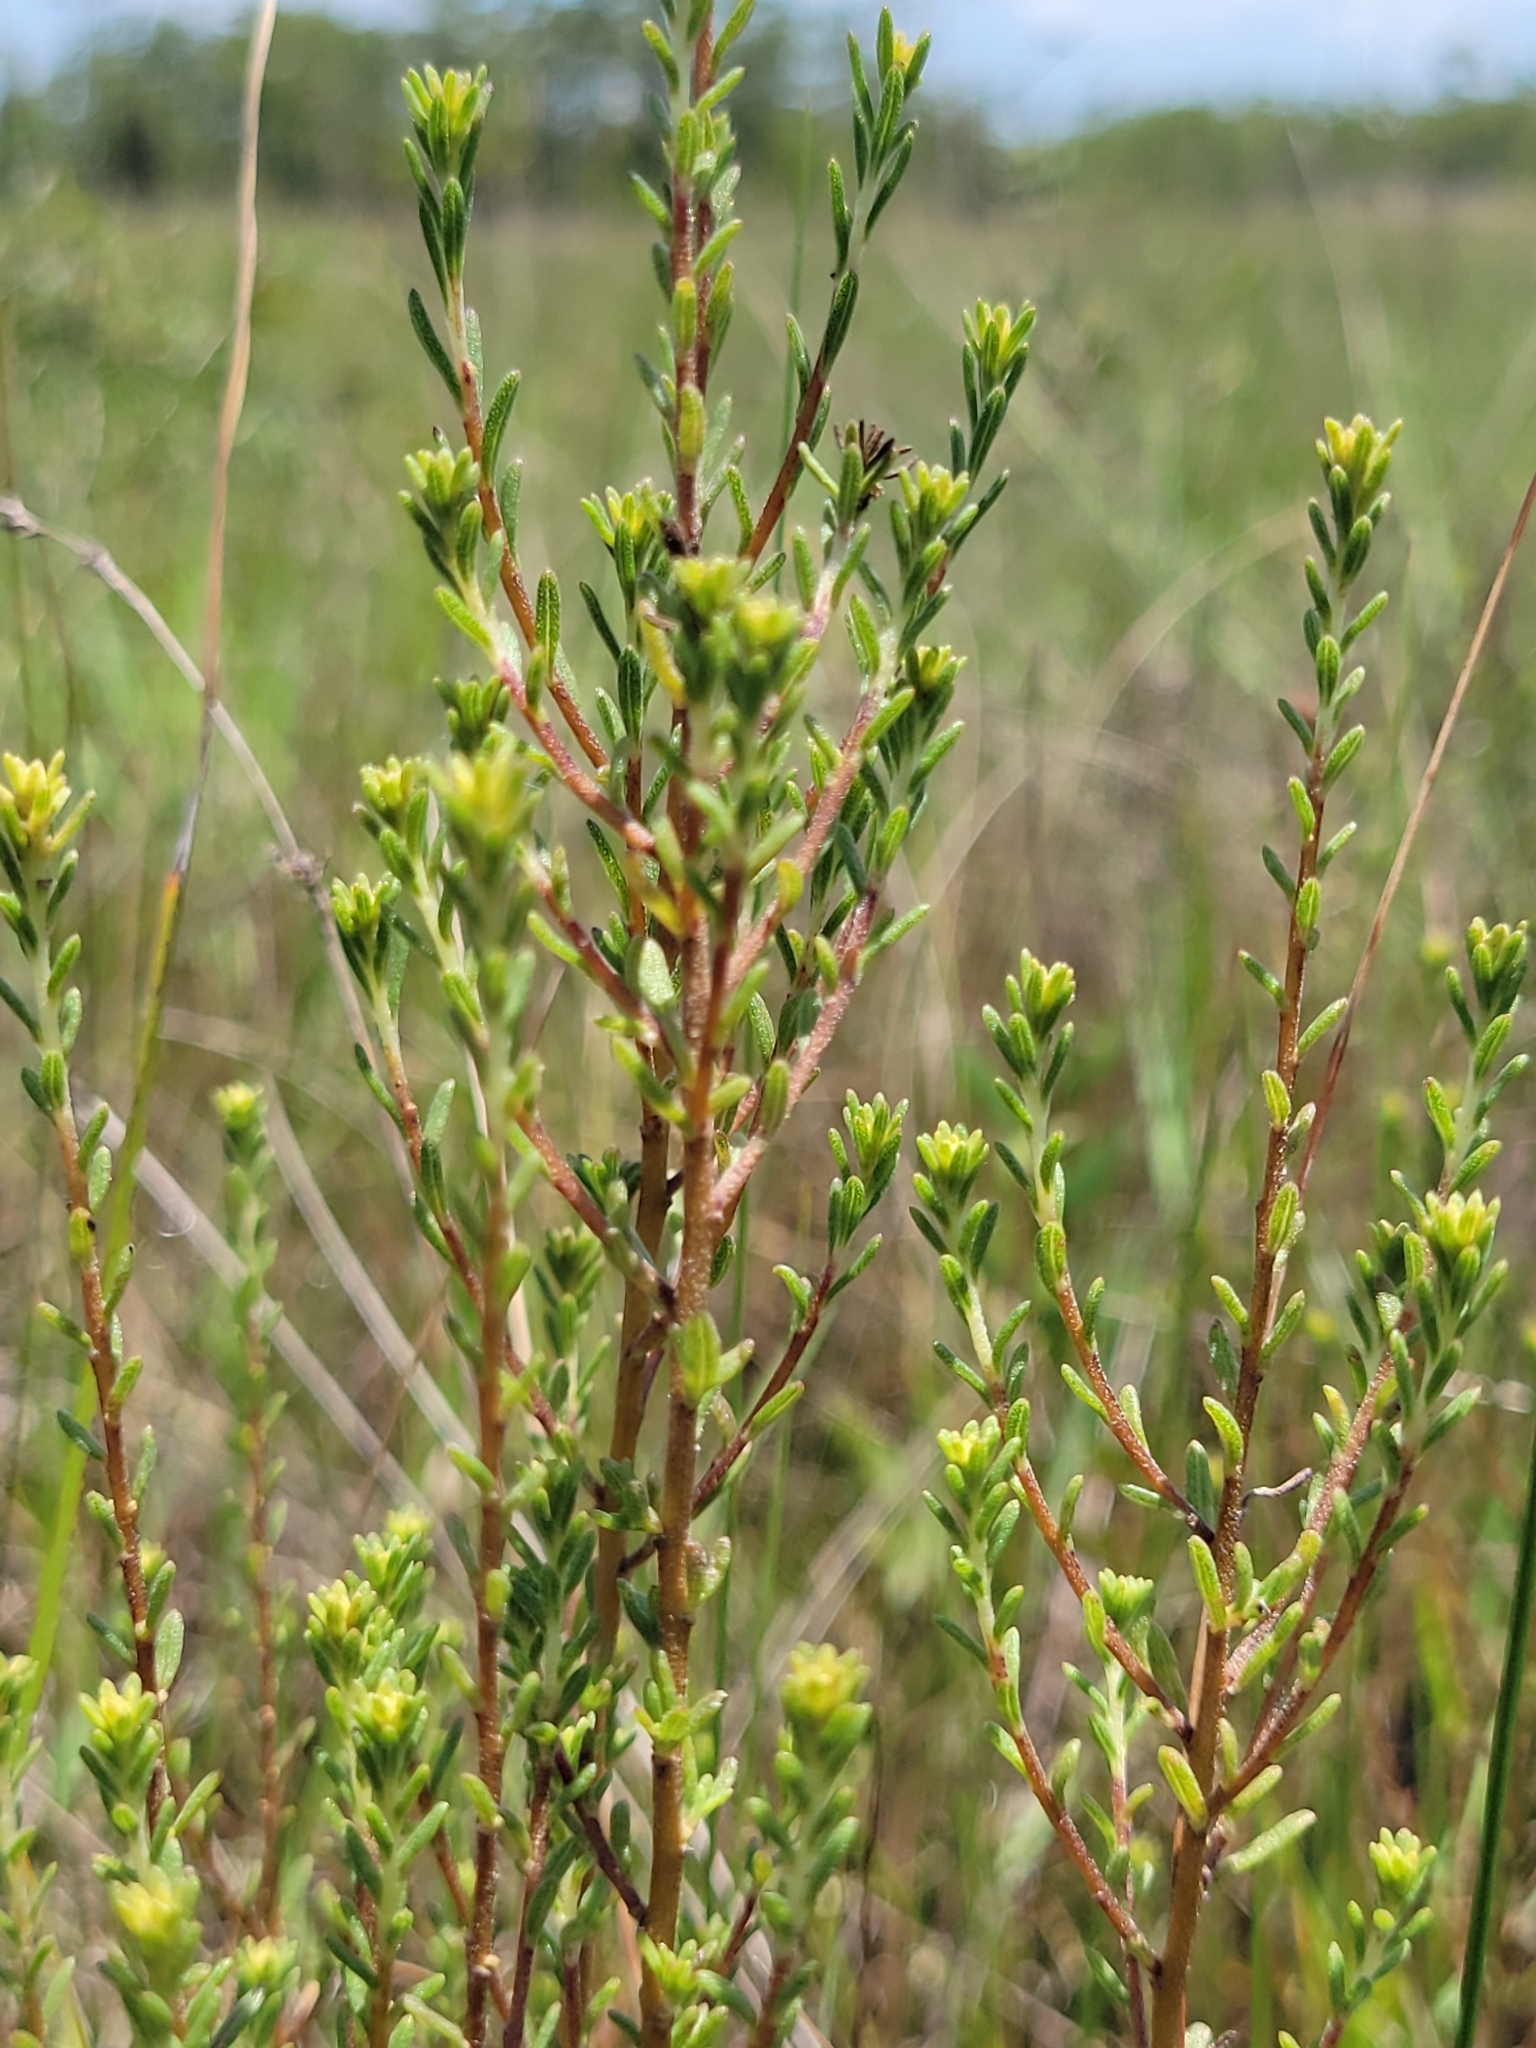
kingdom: Plantae
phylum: Tracheophyta
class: Magnoliopsida
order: Asterales
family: Asteraceae
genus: Iva
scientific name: Iva microcephala
